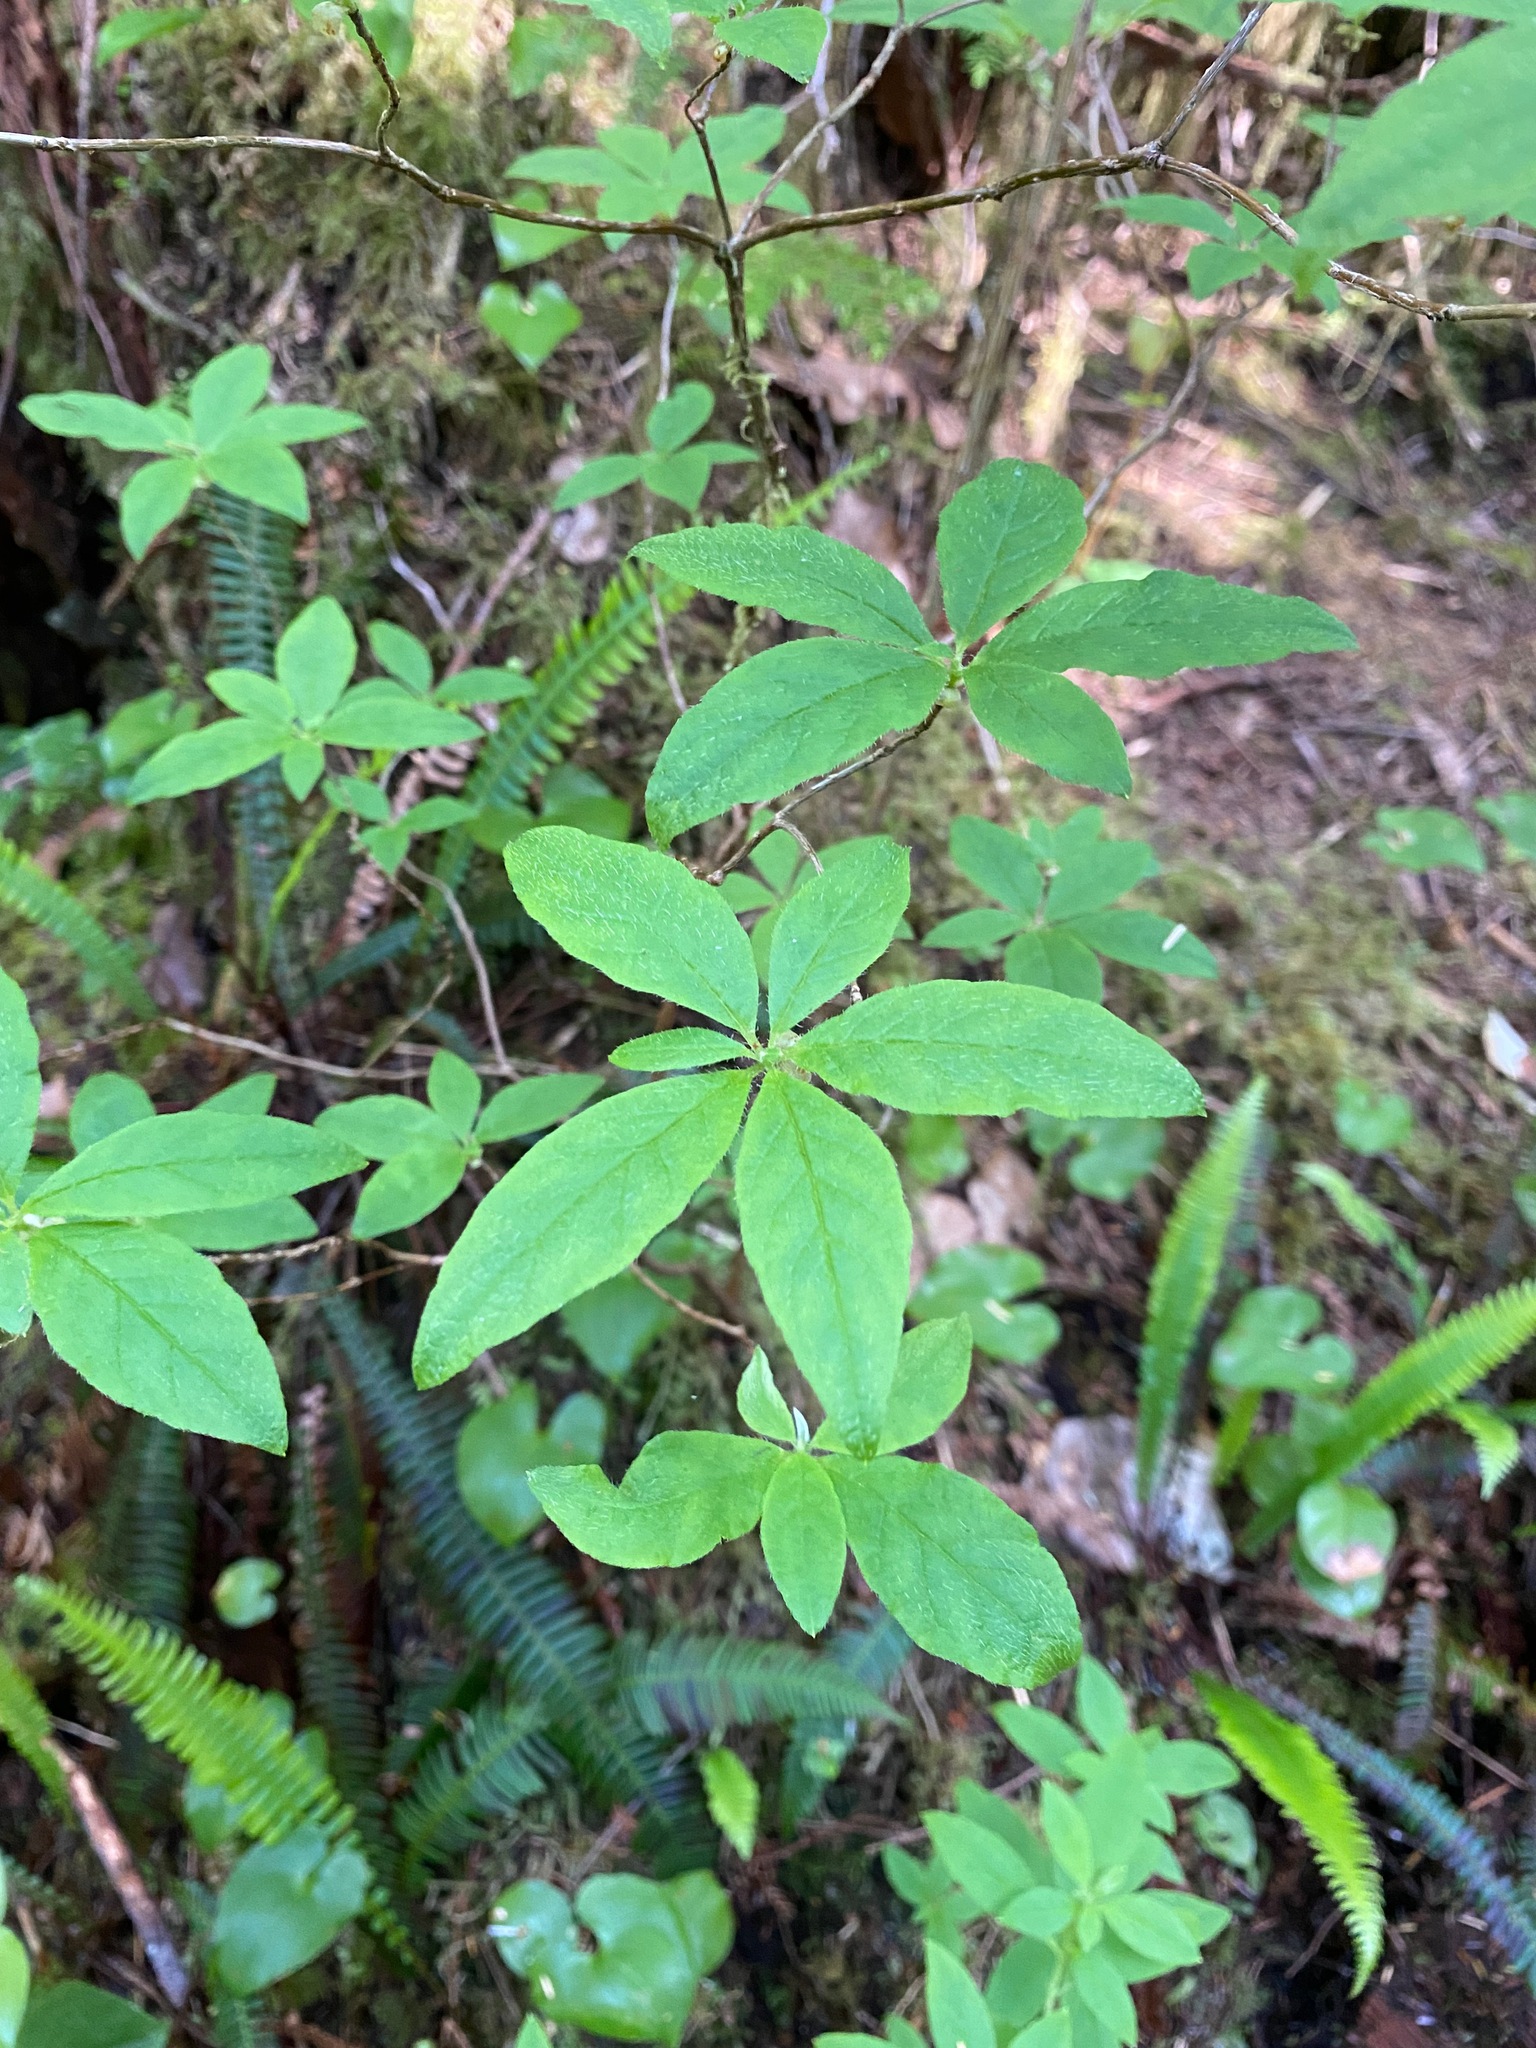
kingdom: Plantae
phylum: Tracheophyta
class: Magnoliopsida
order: Ericales
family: Ericaceae
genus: Rhododendron
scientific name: Rhododendron menziesii
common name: Pacific menziesia
